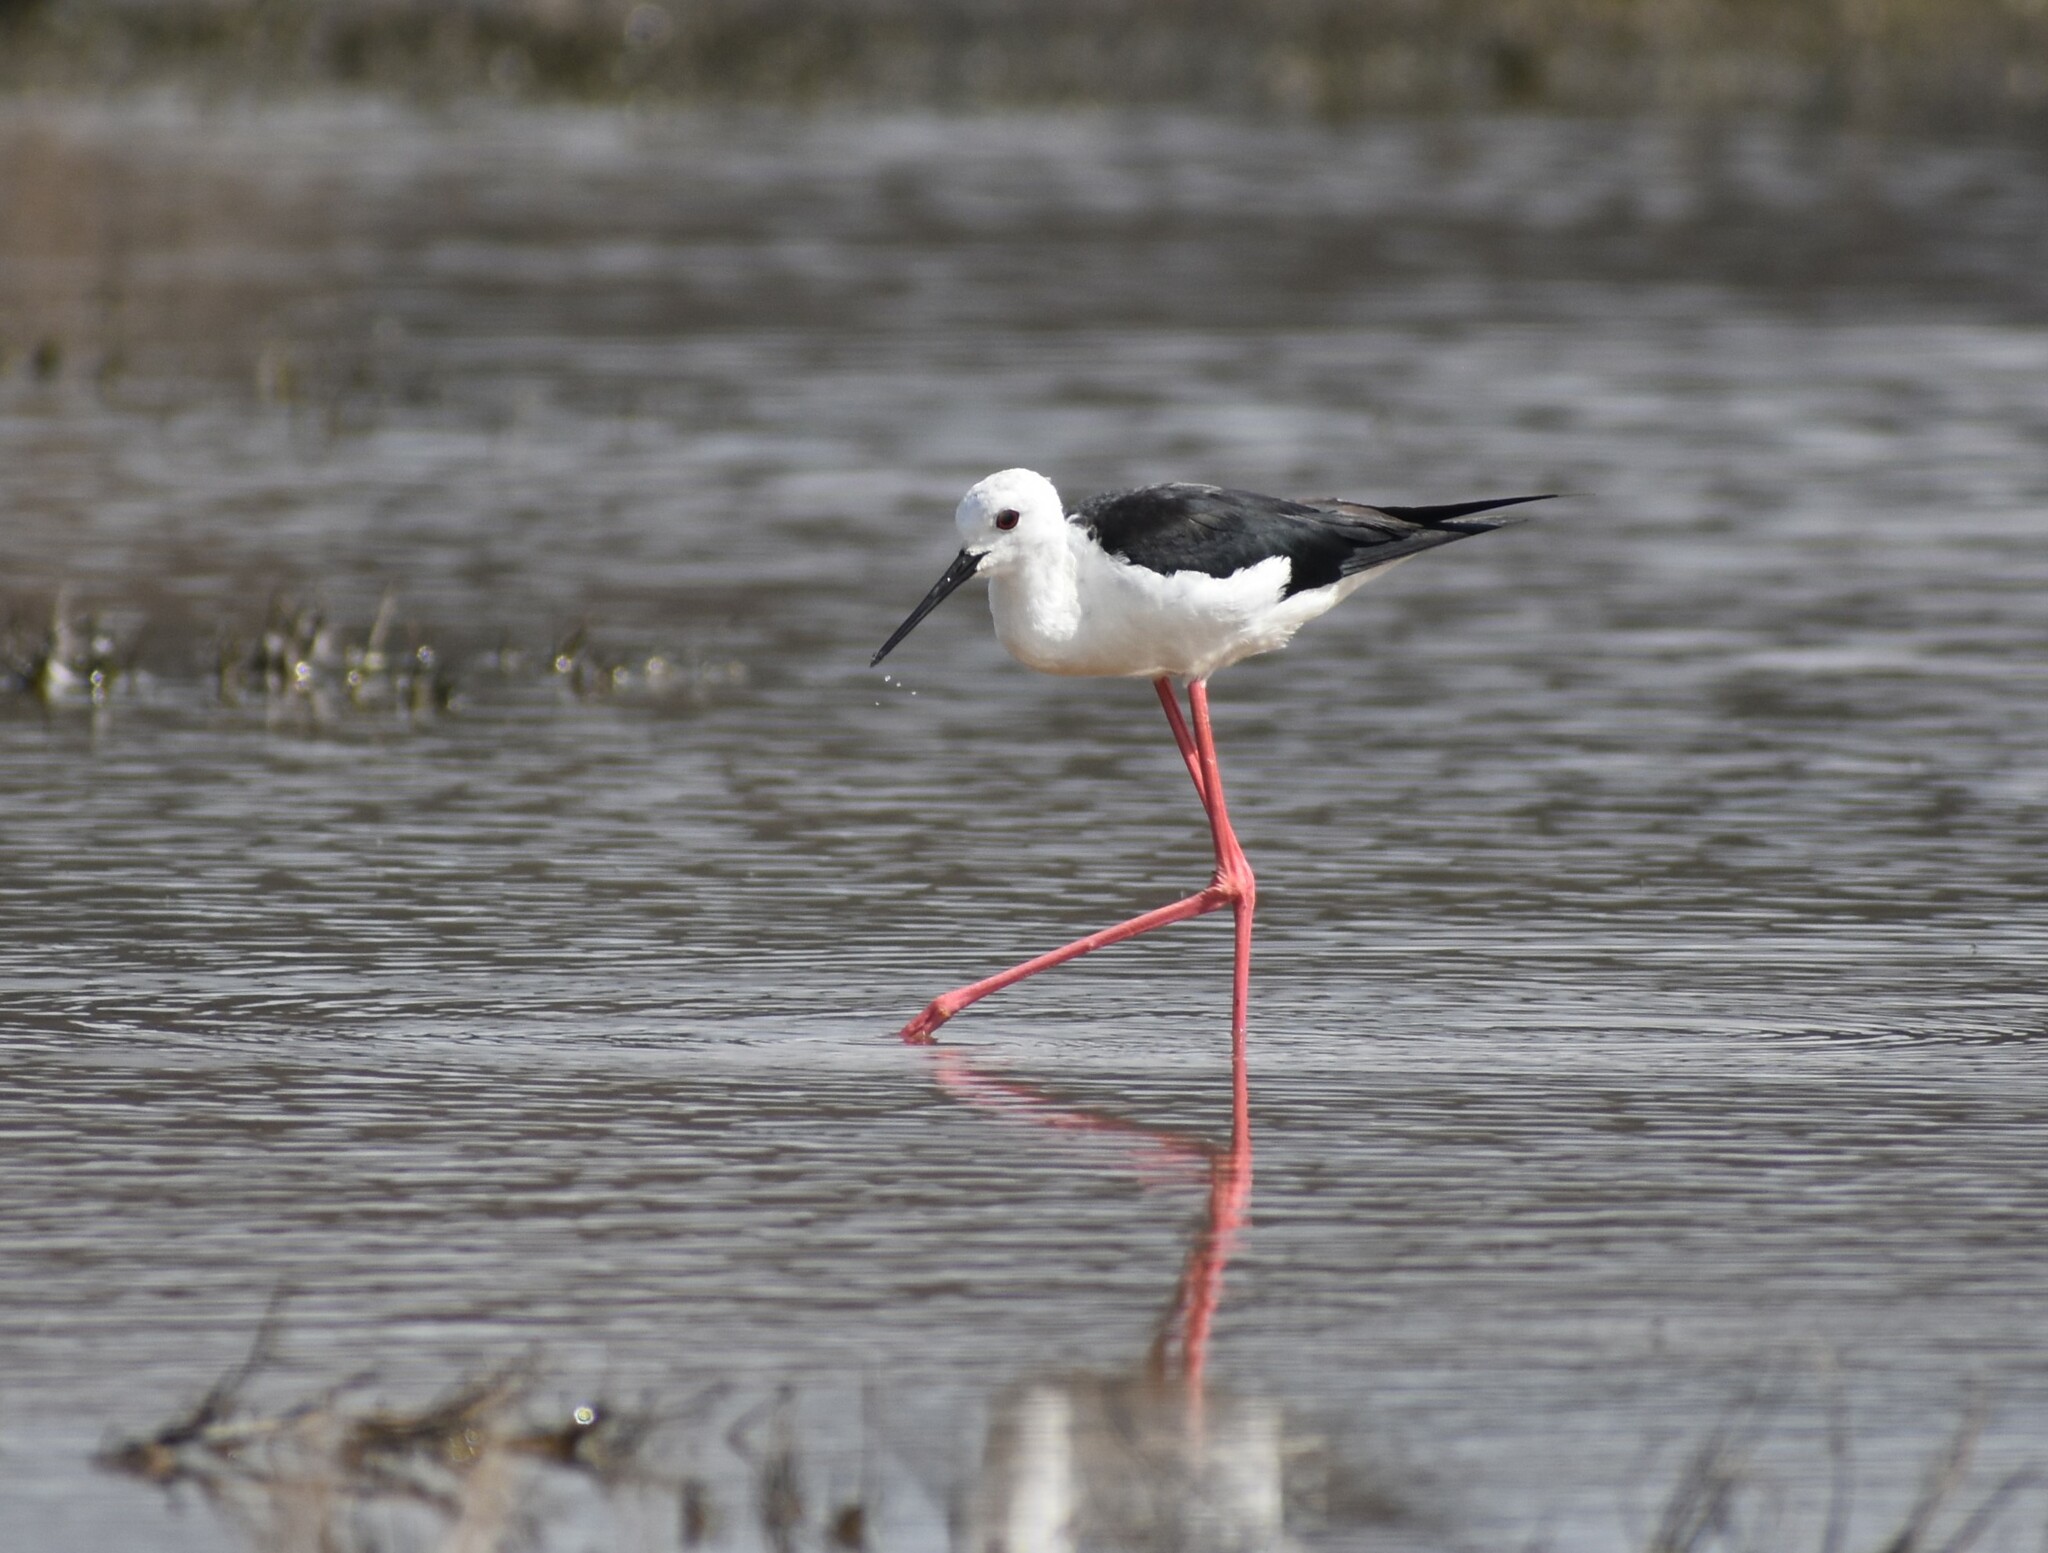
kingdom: Animalia
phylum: Chordata
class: Aves
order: Charadriiformes
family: Recurvirostridae
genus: Himantopus
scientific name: Himantopus himantopus
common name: Black-winged stilt
